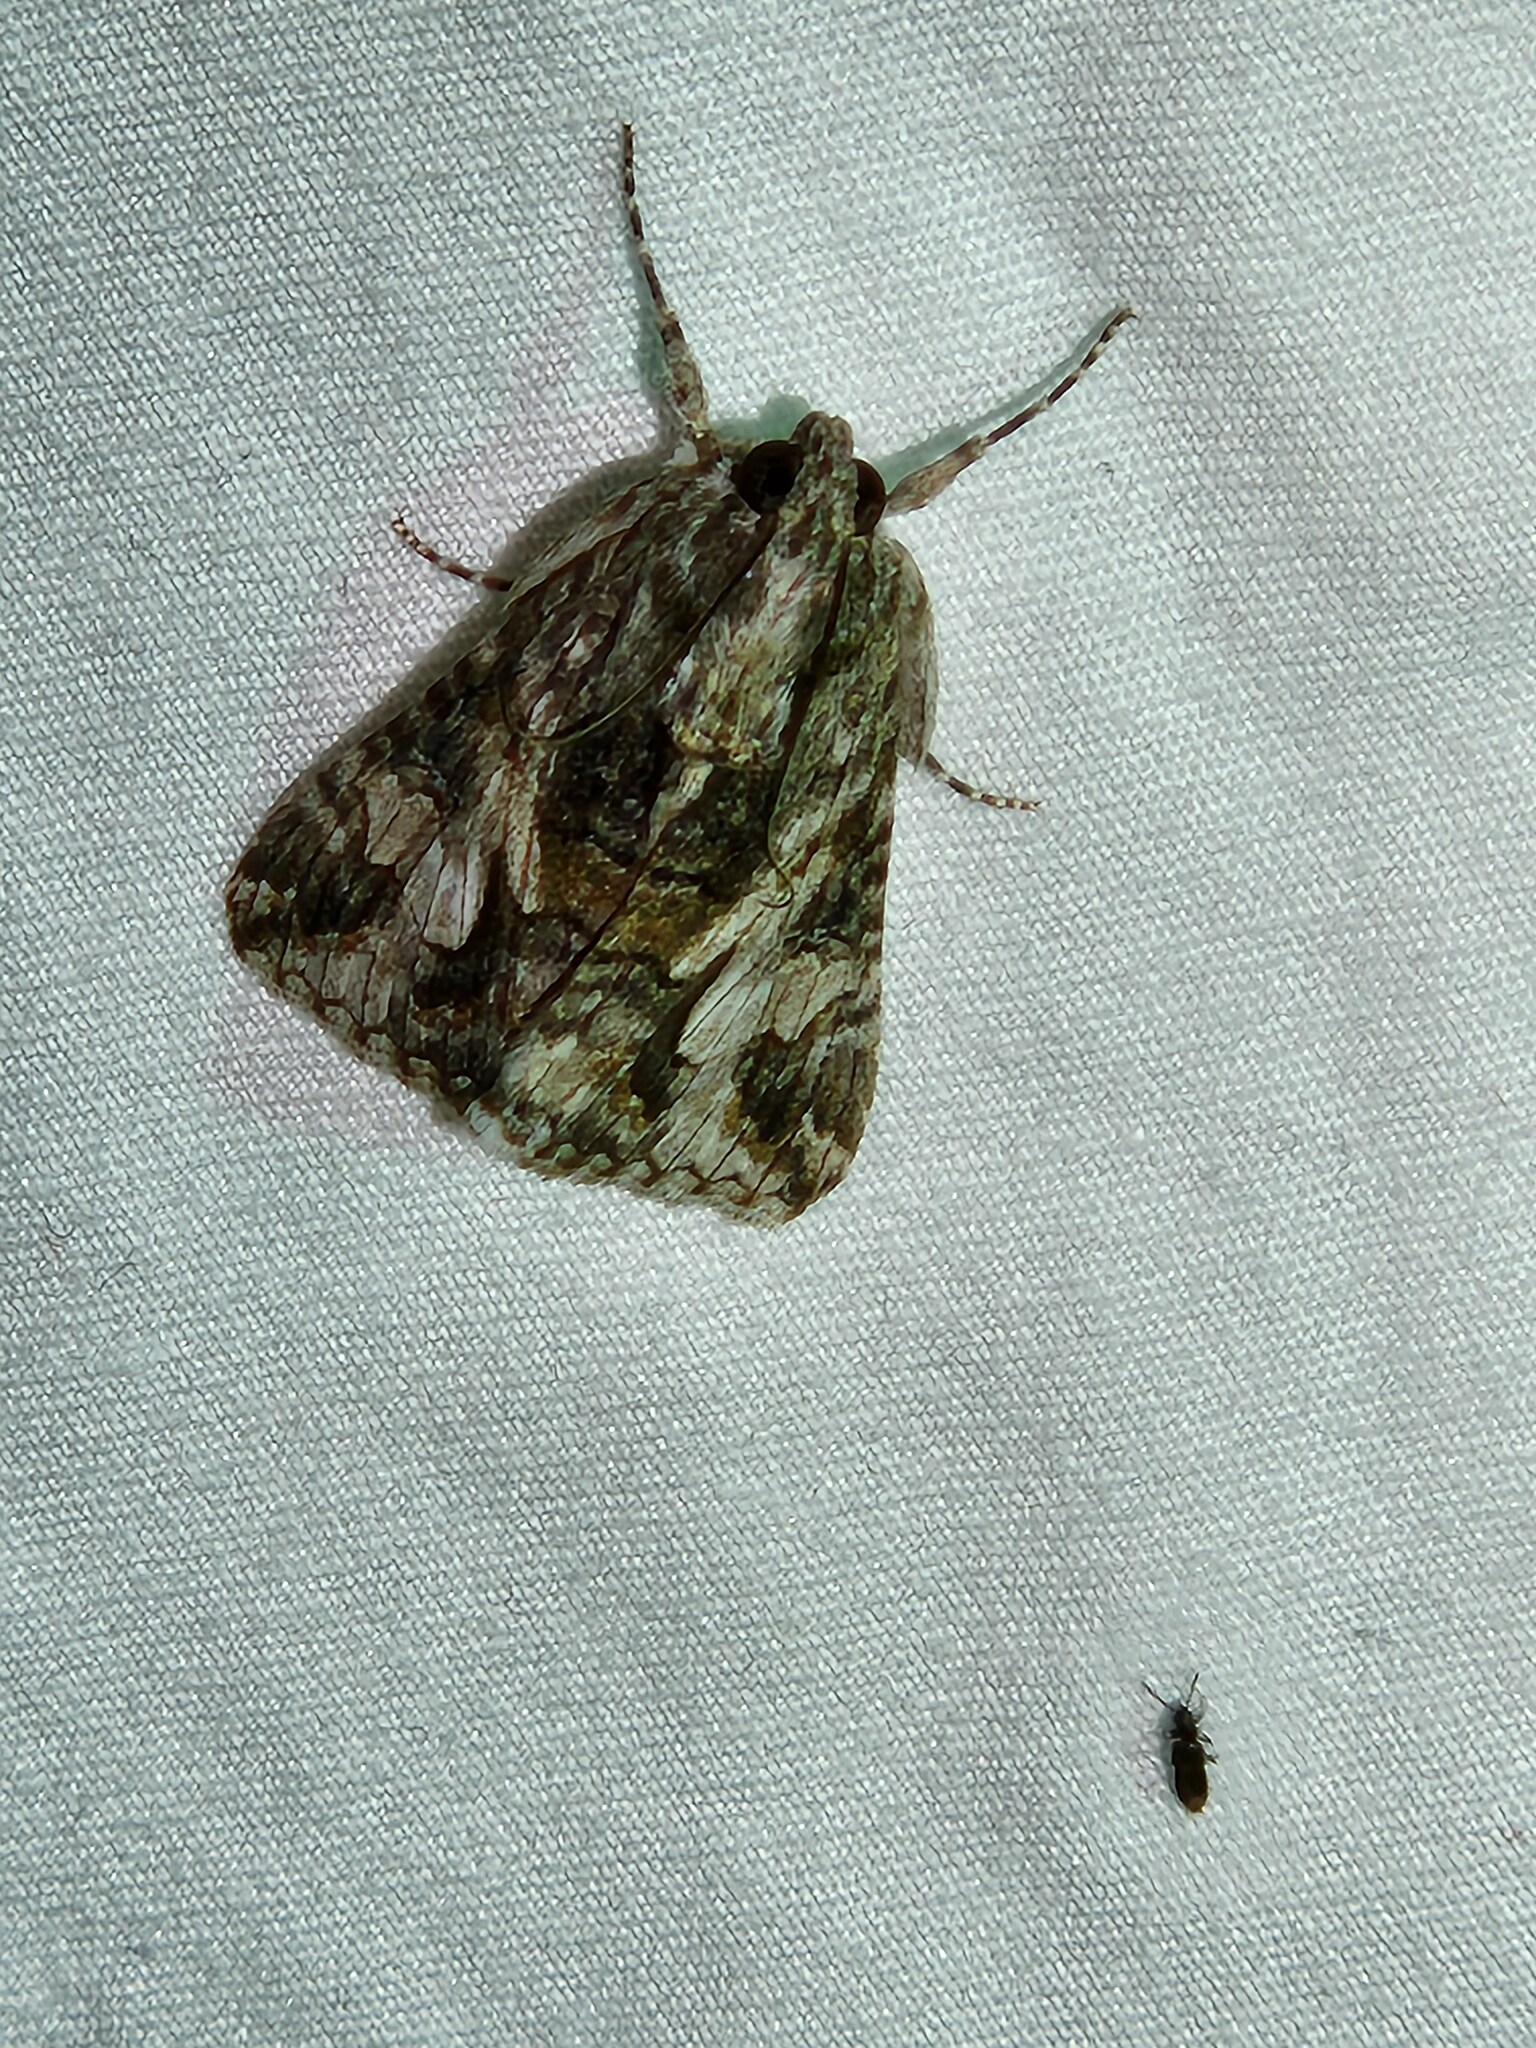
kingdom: Animalia
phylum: Arthropoda
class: Insecta
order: Lepidoptera
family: Erebidae
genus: Melipotis
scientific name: Melipotis jucunda
